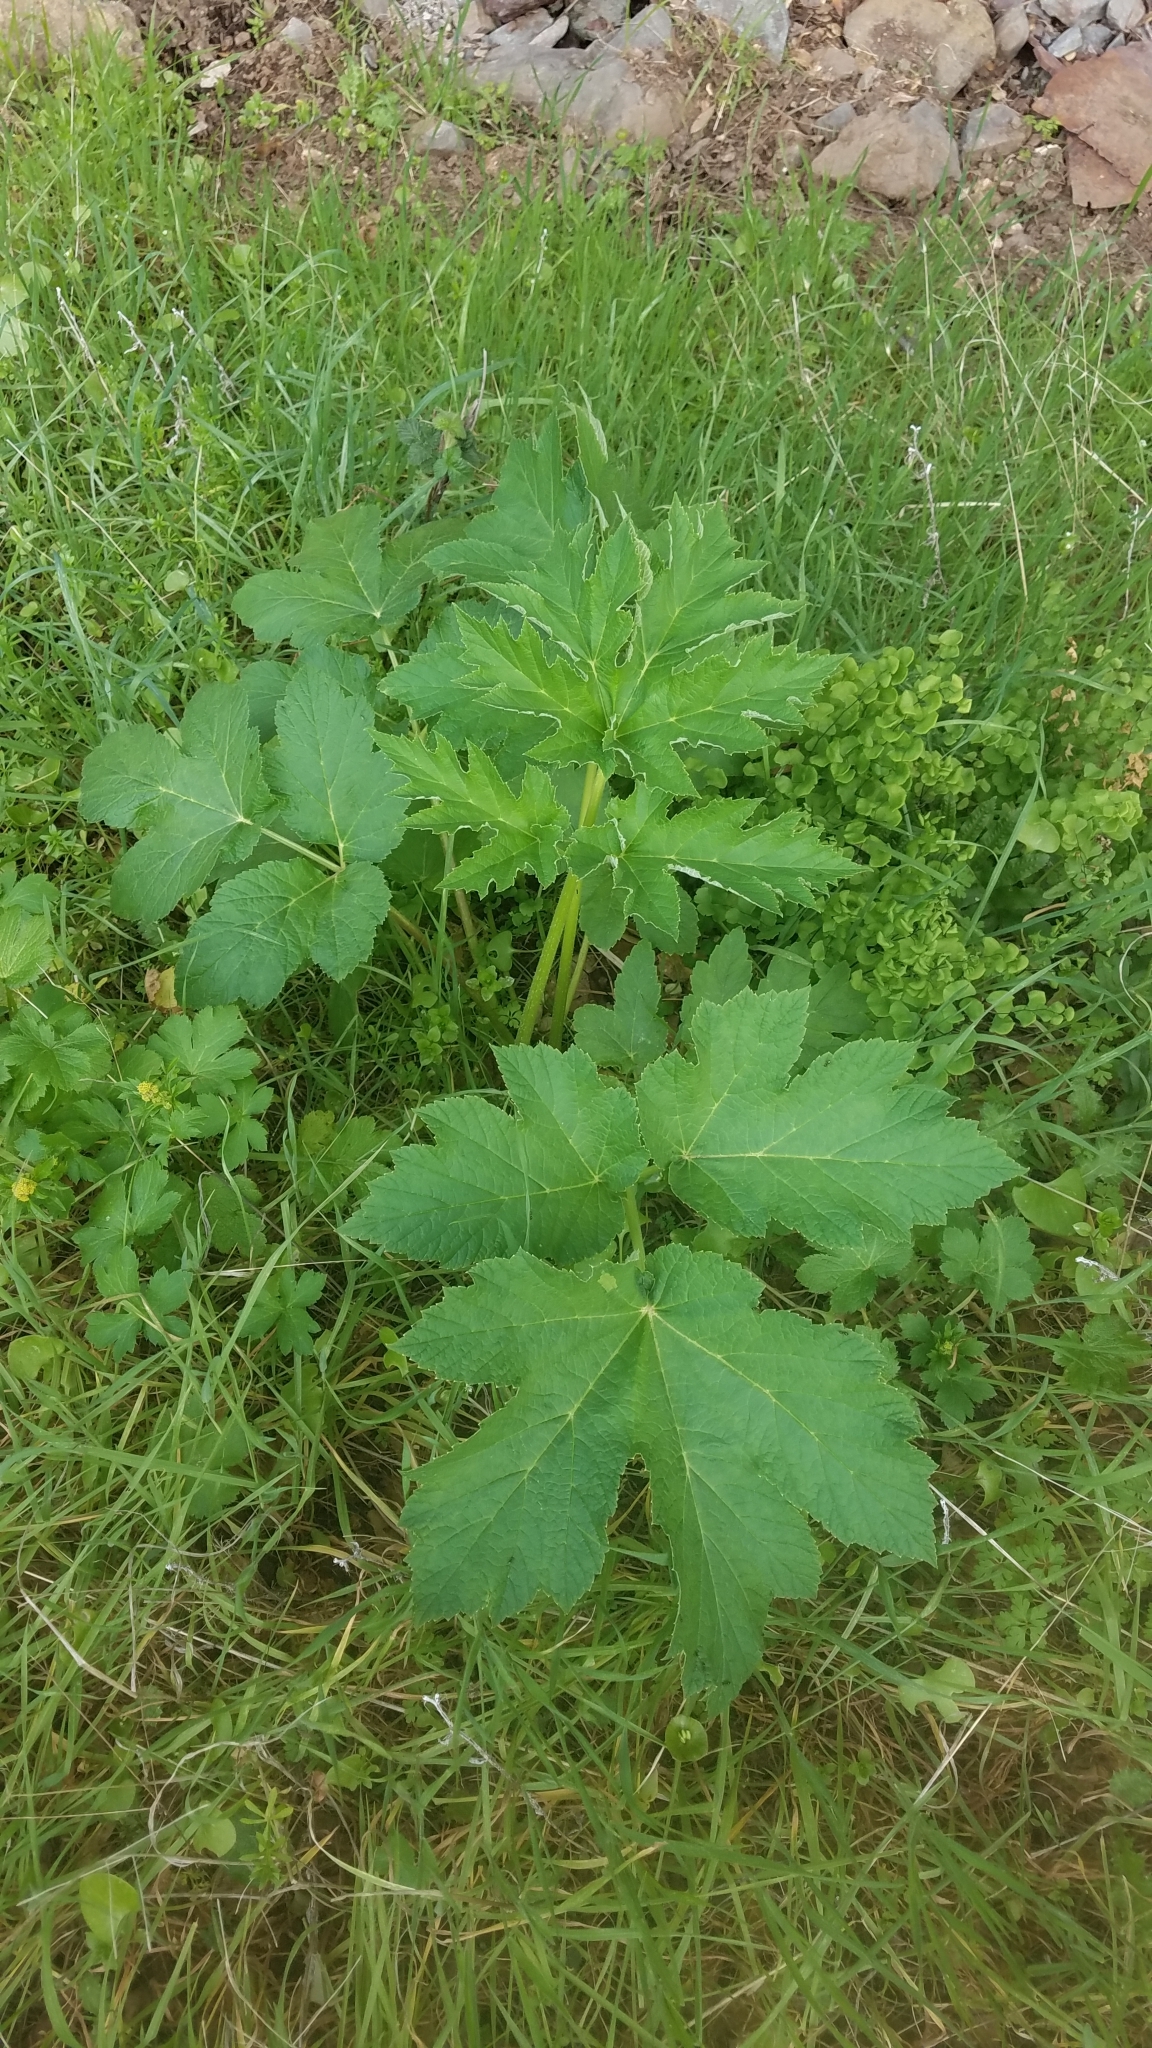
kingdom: Plantae
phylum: Tracheophyta
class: Magnoliopsida
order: Apiales
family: Apiaceae
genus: Heracleum
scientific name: Heracleum maximum
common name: American cow parsnip
